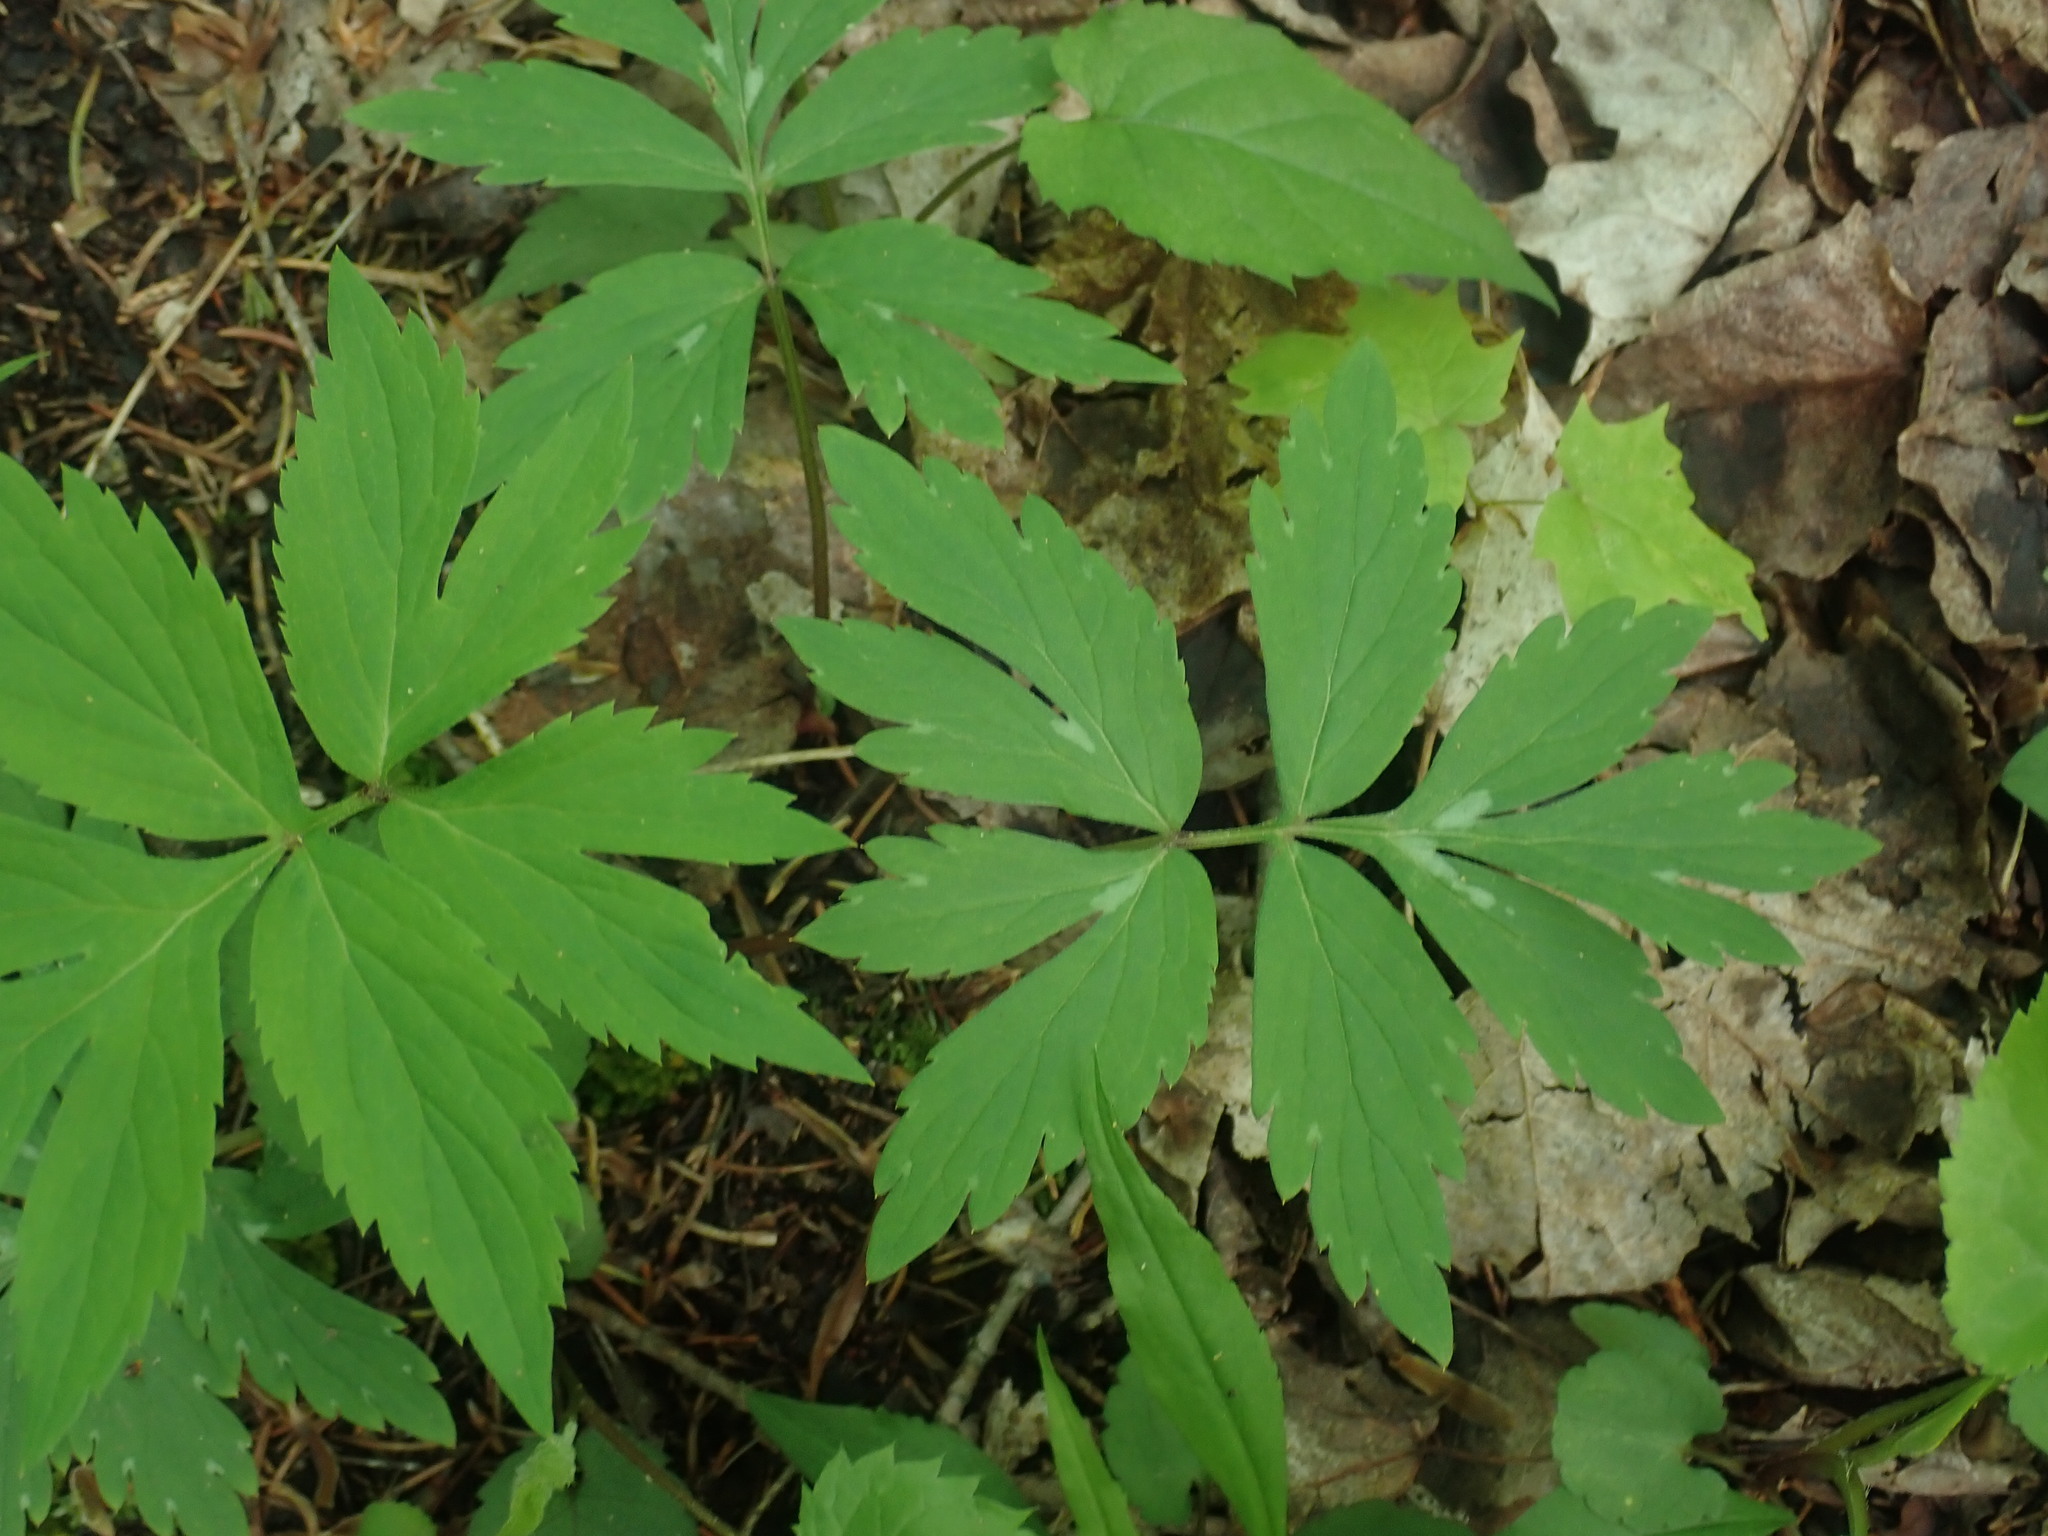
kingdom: Plantae
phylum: Tracheophyta
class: Magnoliopsida
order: Boraginales
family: Hydrophyllaceae
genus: Hydrophyllum
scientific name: Hydrophyllum virginianum
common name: Virginia waterleaf
